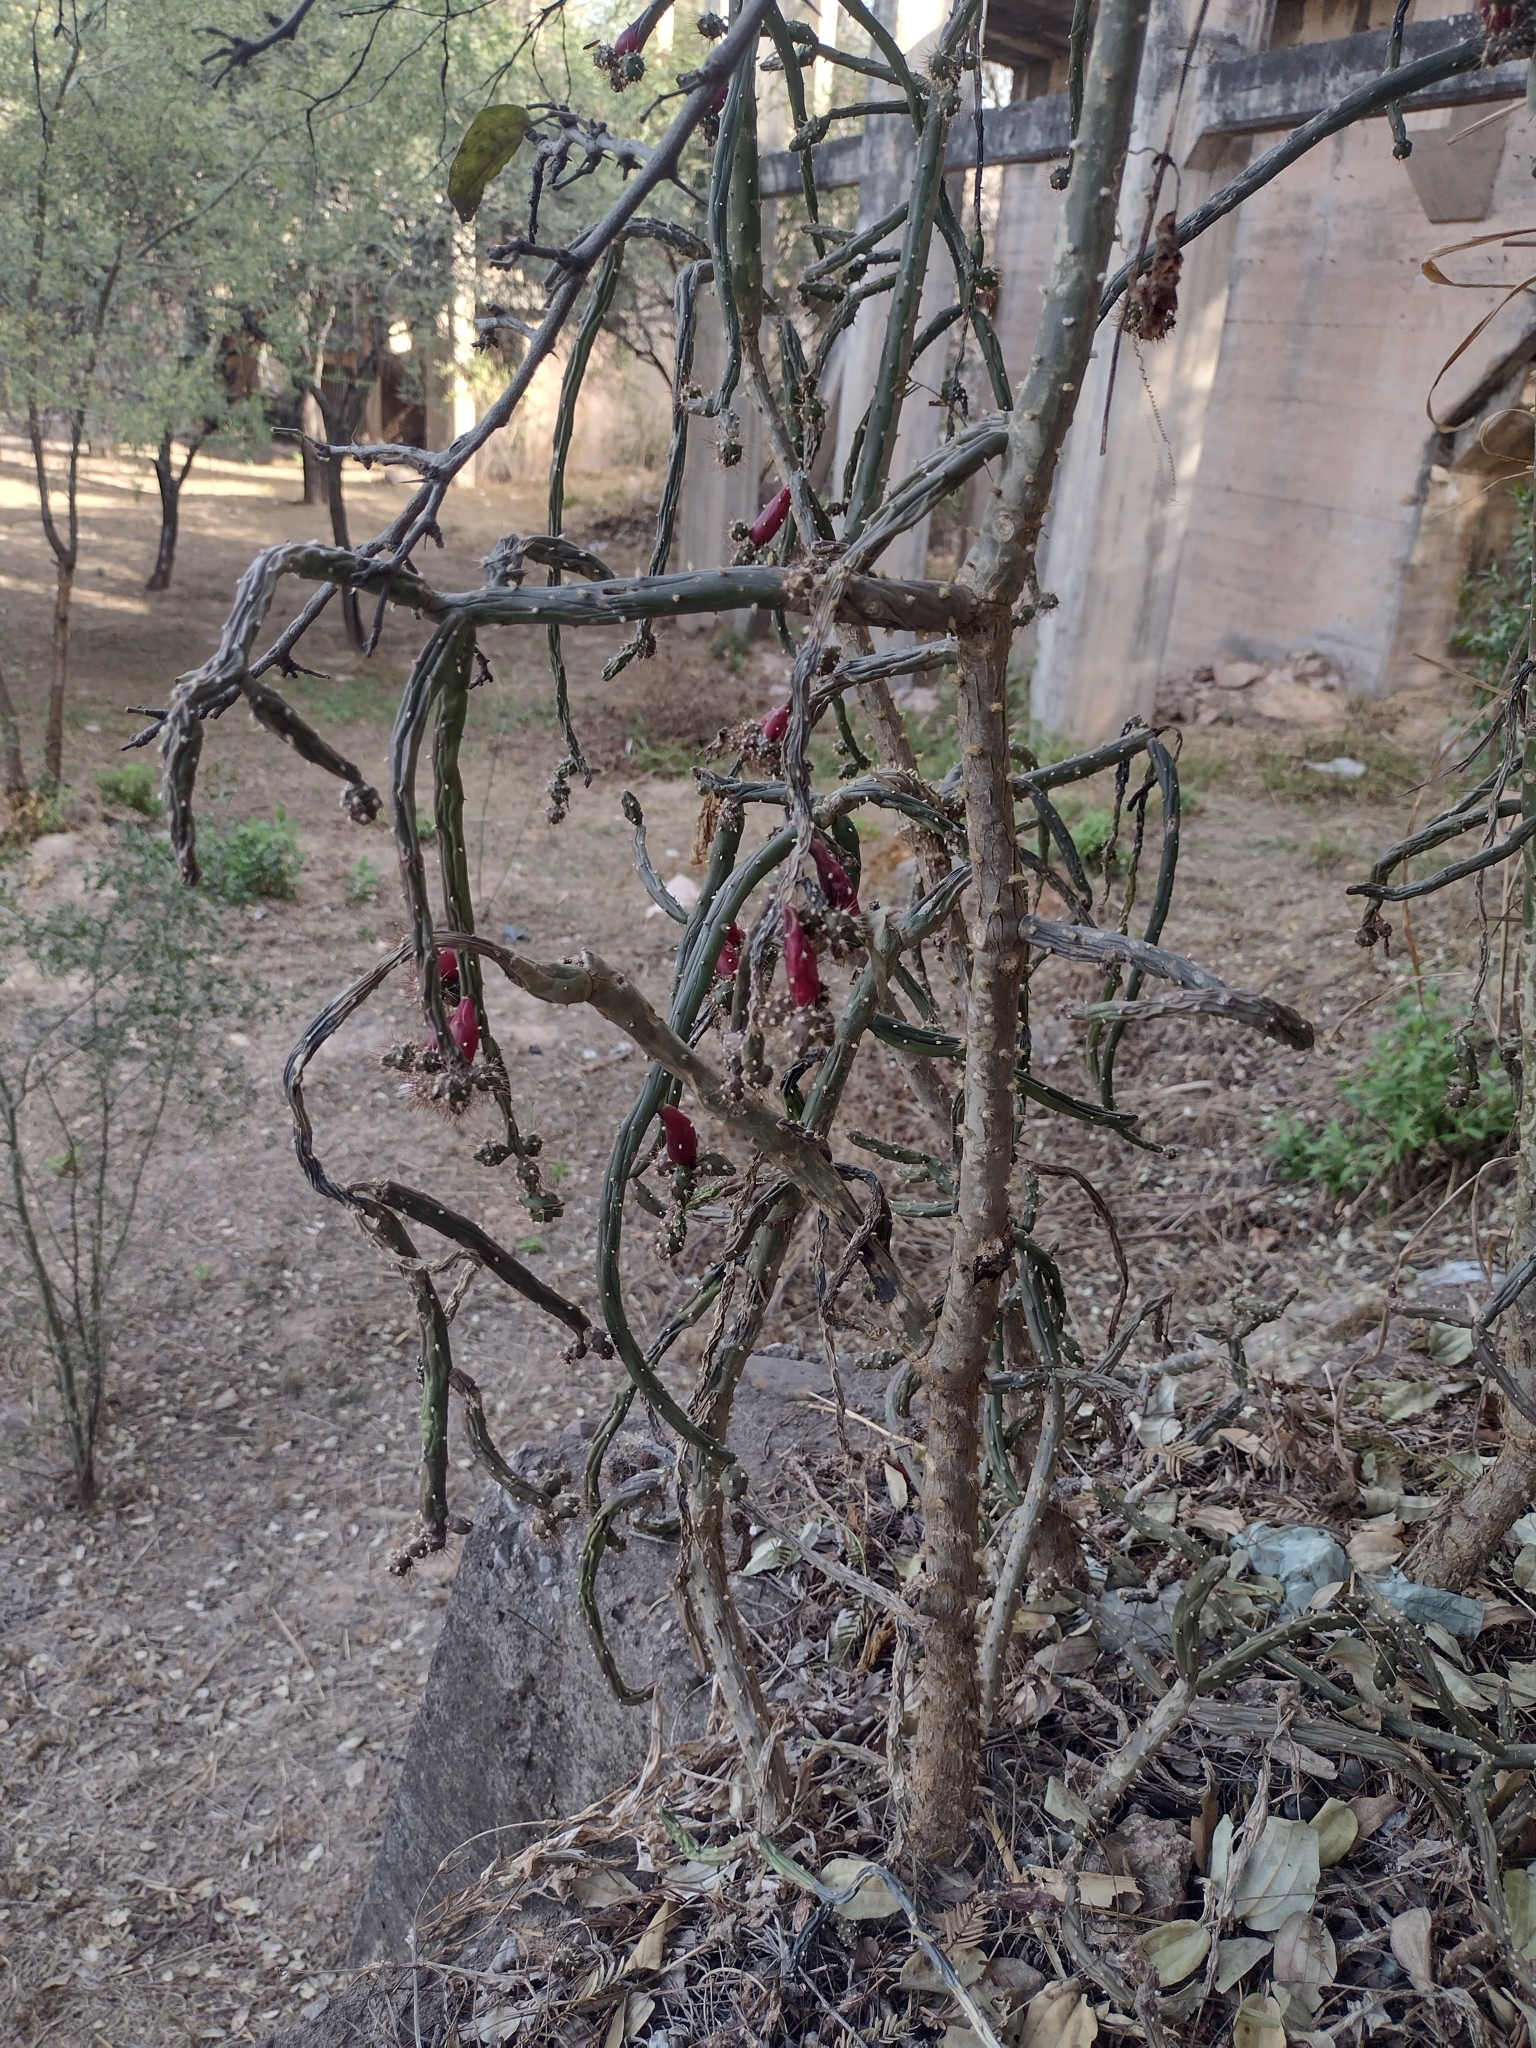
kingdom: Plantae
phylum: Tracheophyta
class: Magnoliopsida
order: Caryophyllales
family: Cactaceae
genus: Salmonopuntia
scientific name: Salmonopuntia salmiana
